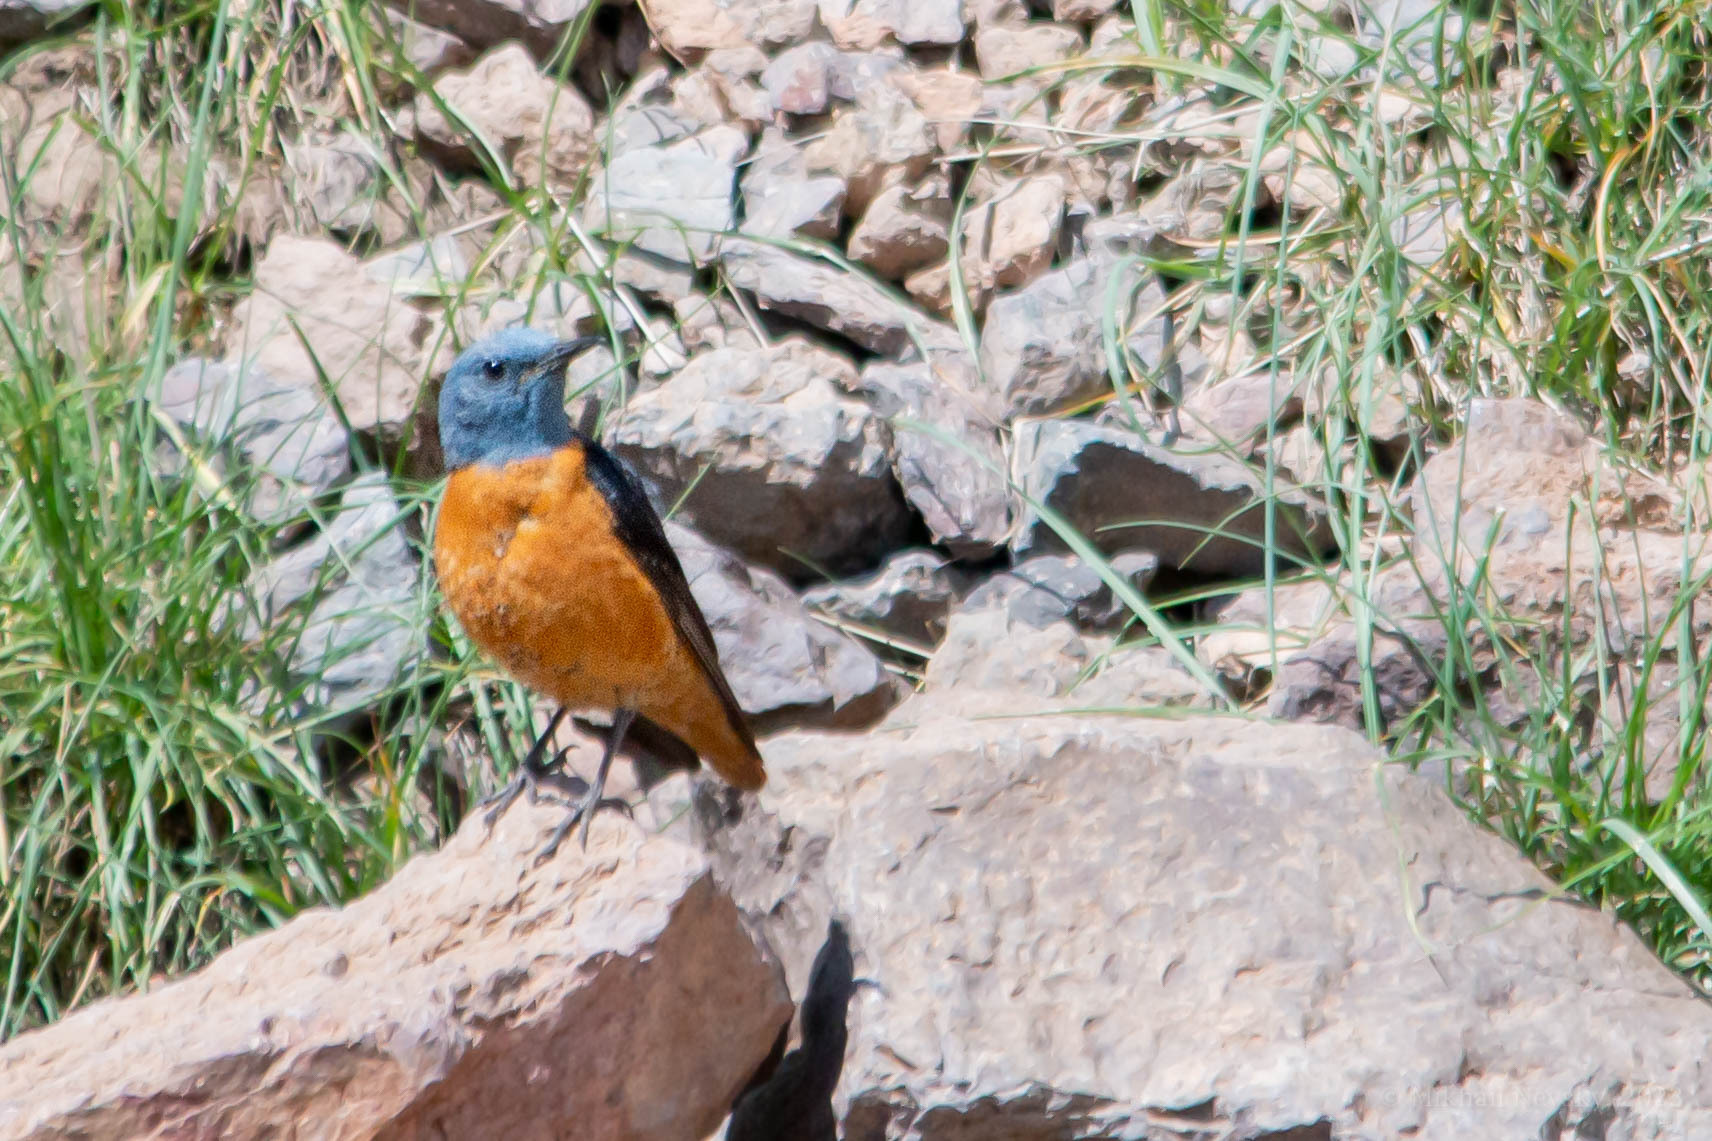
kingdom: Animalia
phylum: Chordata
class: Aves
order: Passeriformes
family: Muscicapidae
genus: Monticola
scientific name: Monticola saxatilis
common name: Rufous-tailed rock thrush
